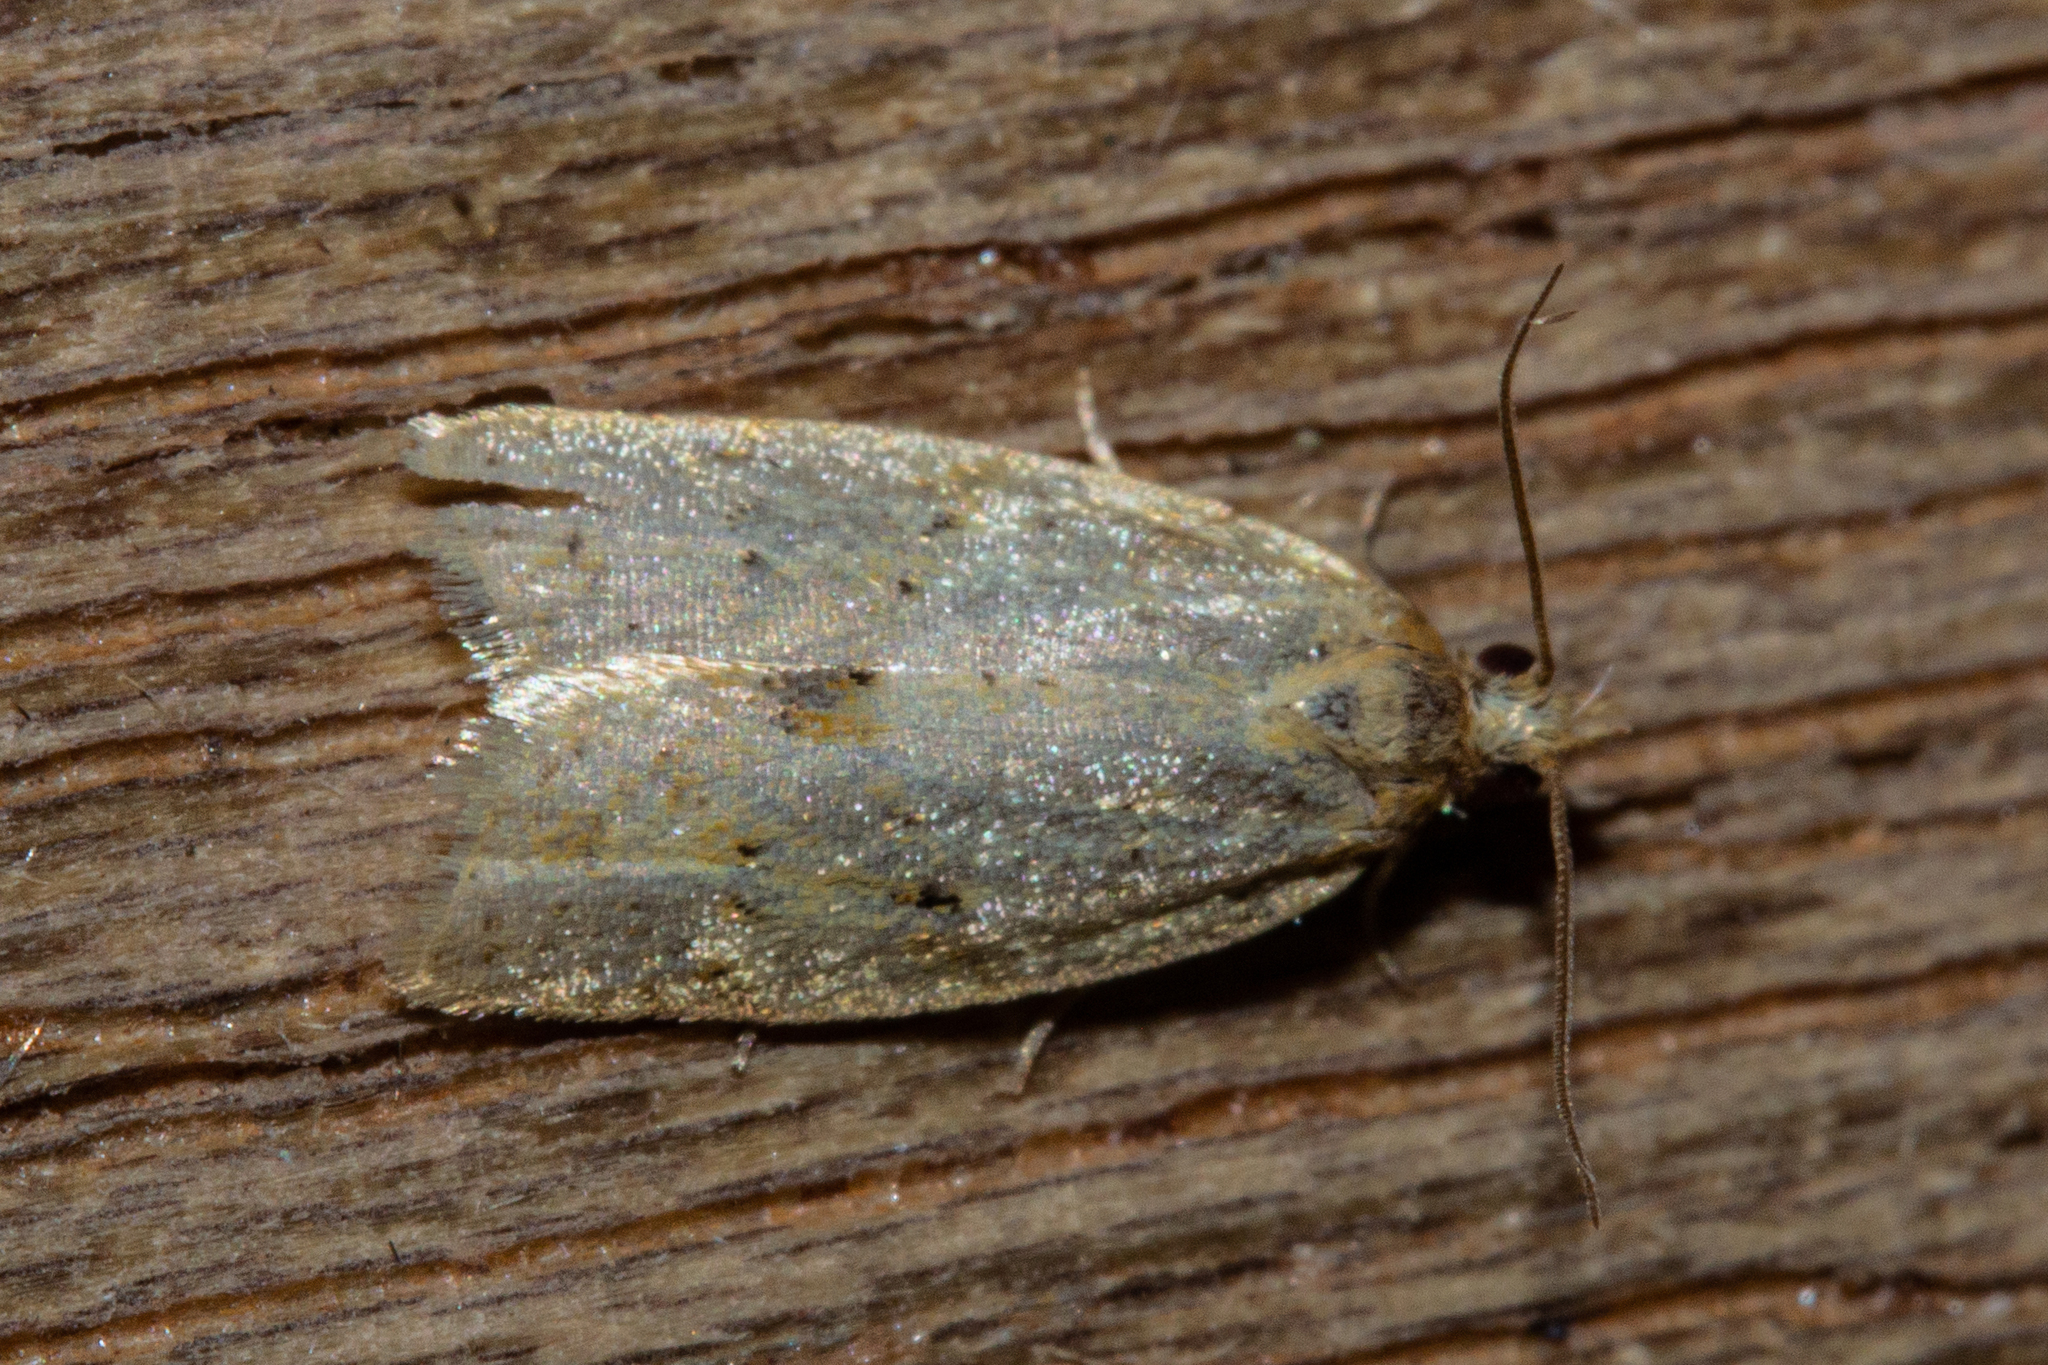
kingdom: Animalia
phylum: Arthropoda
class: Insecta
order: Lepidoptera
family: Tortricidae
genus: Clepsis
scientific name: Clepsis
